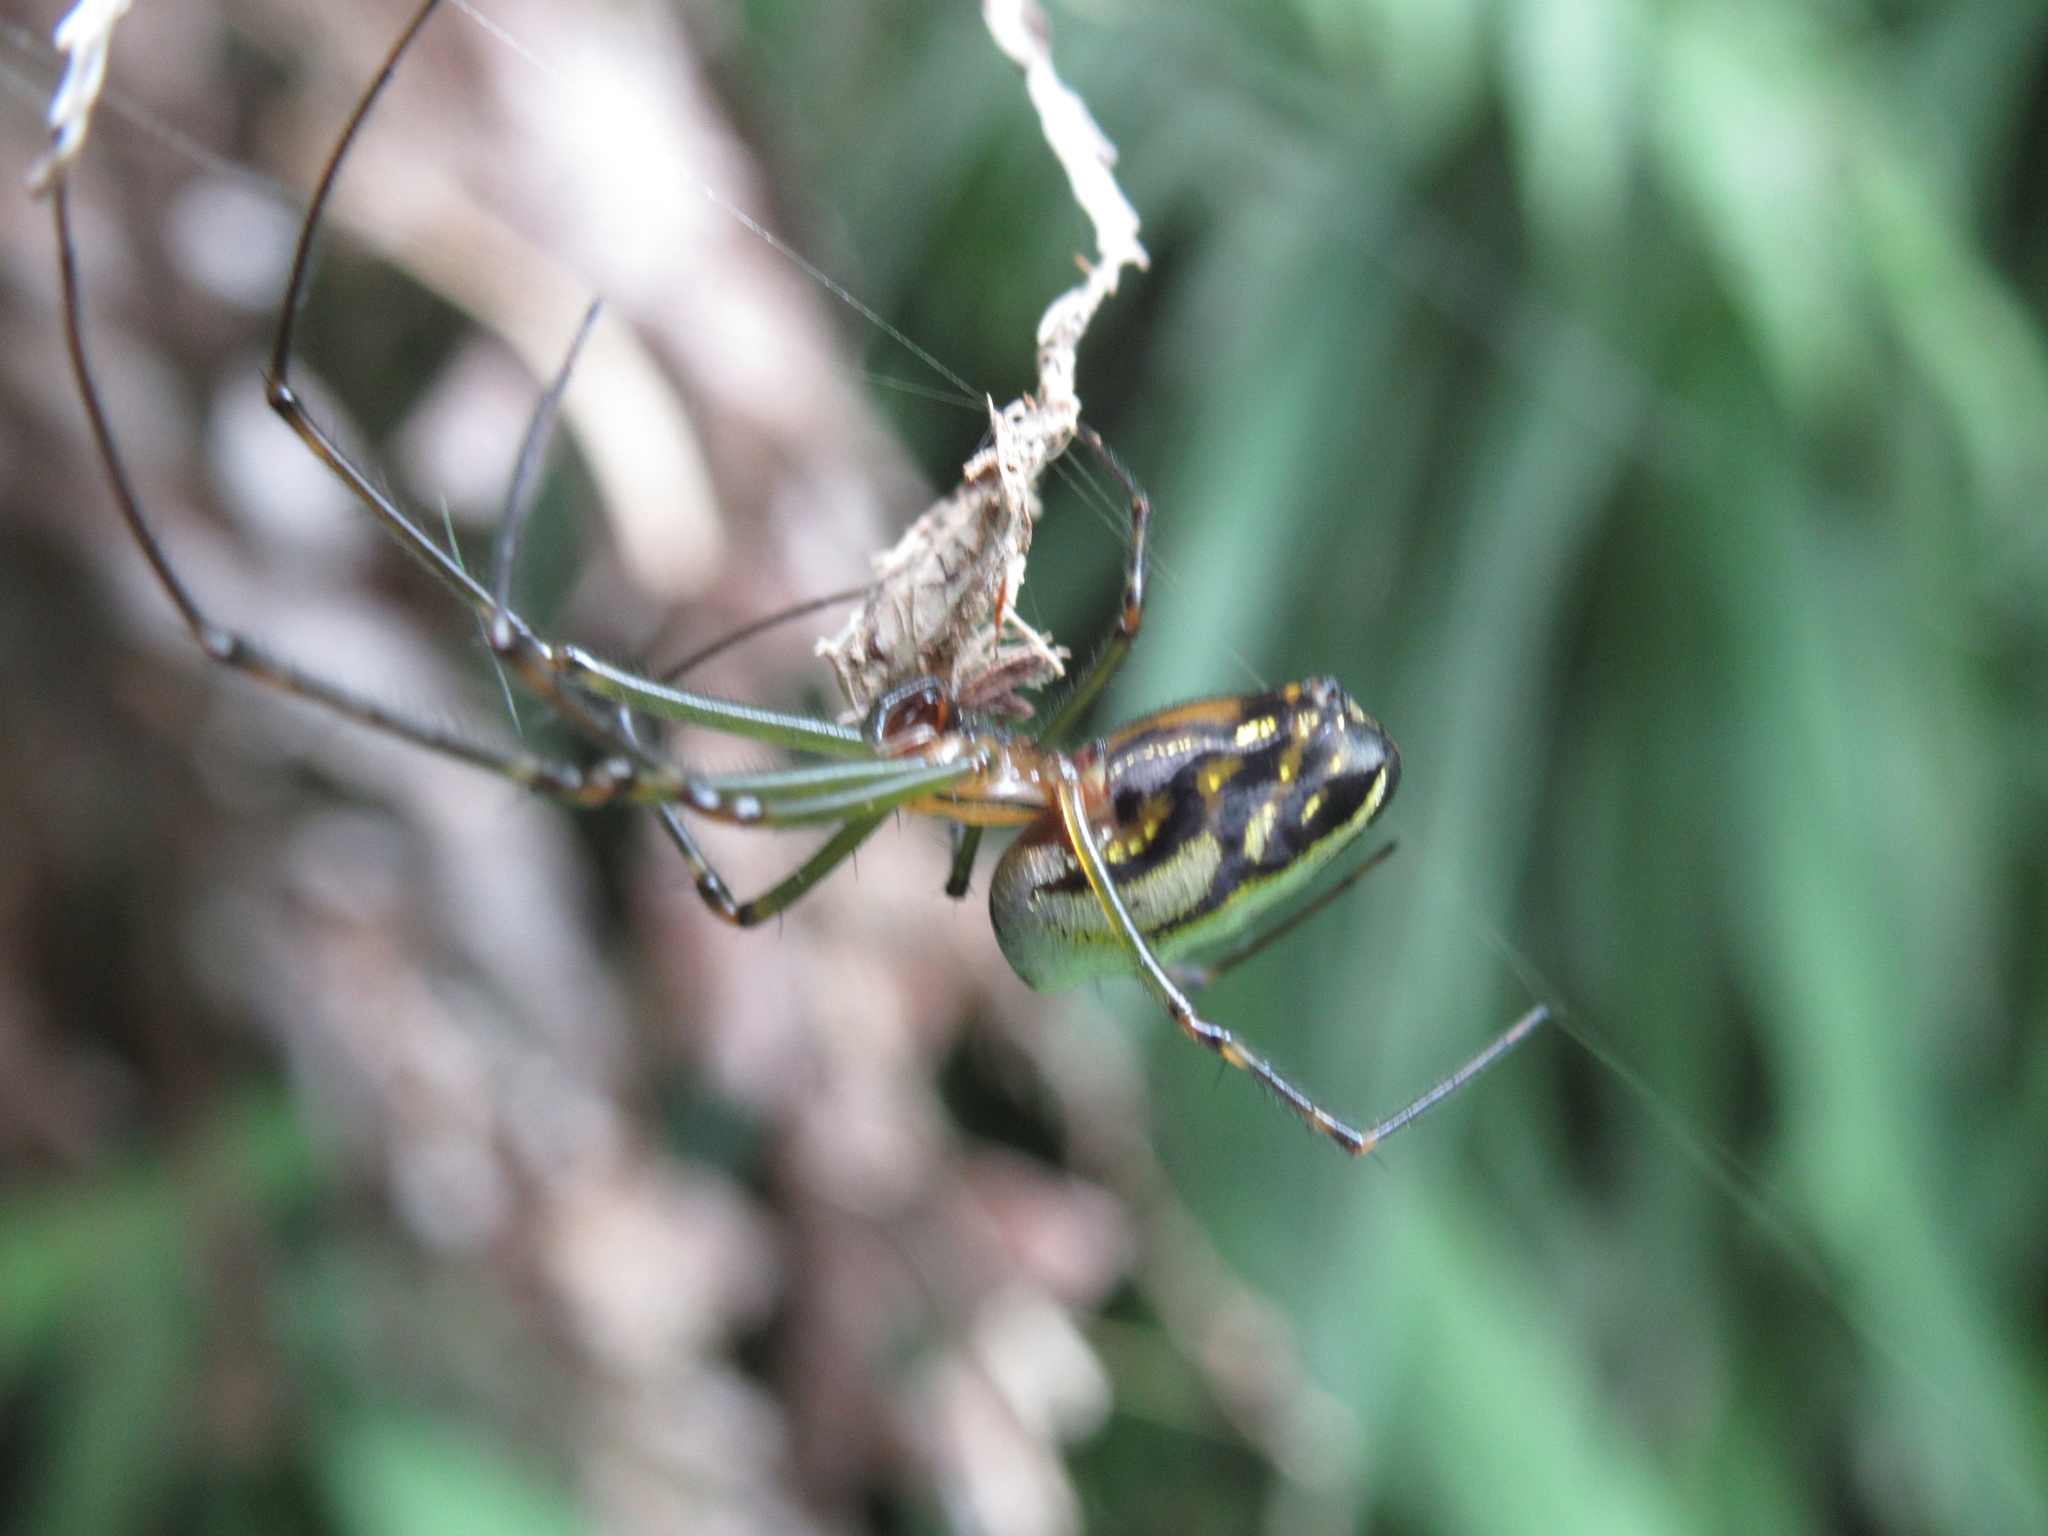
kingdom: Animalia
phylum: Arthropoda
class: Arachnida
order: Araneae
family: Tetragnathidae
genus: Leucauge
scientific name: Leucauge dromedaria
